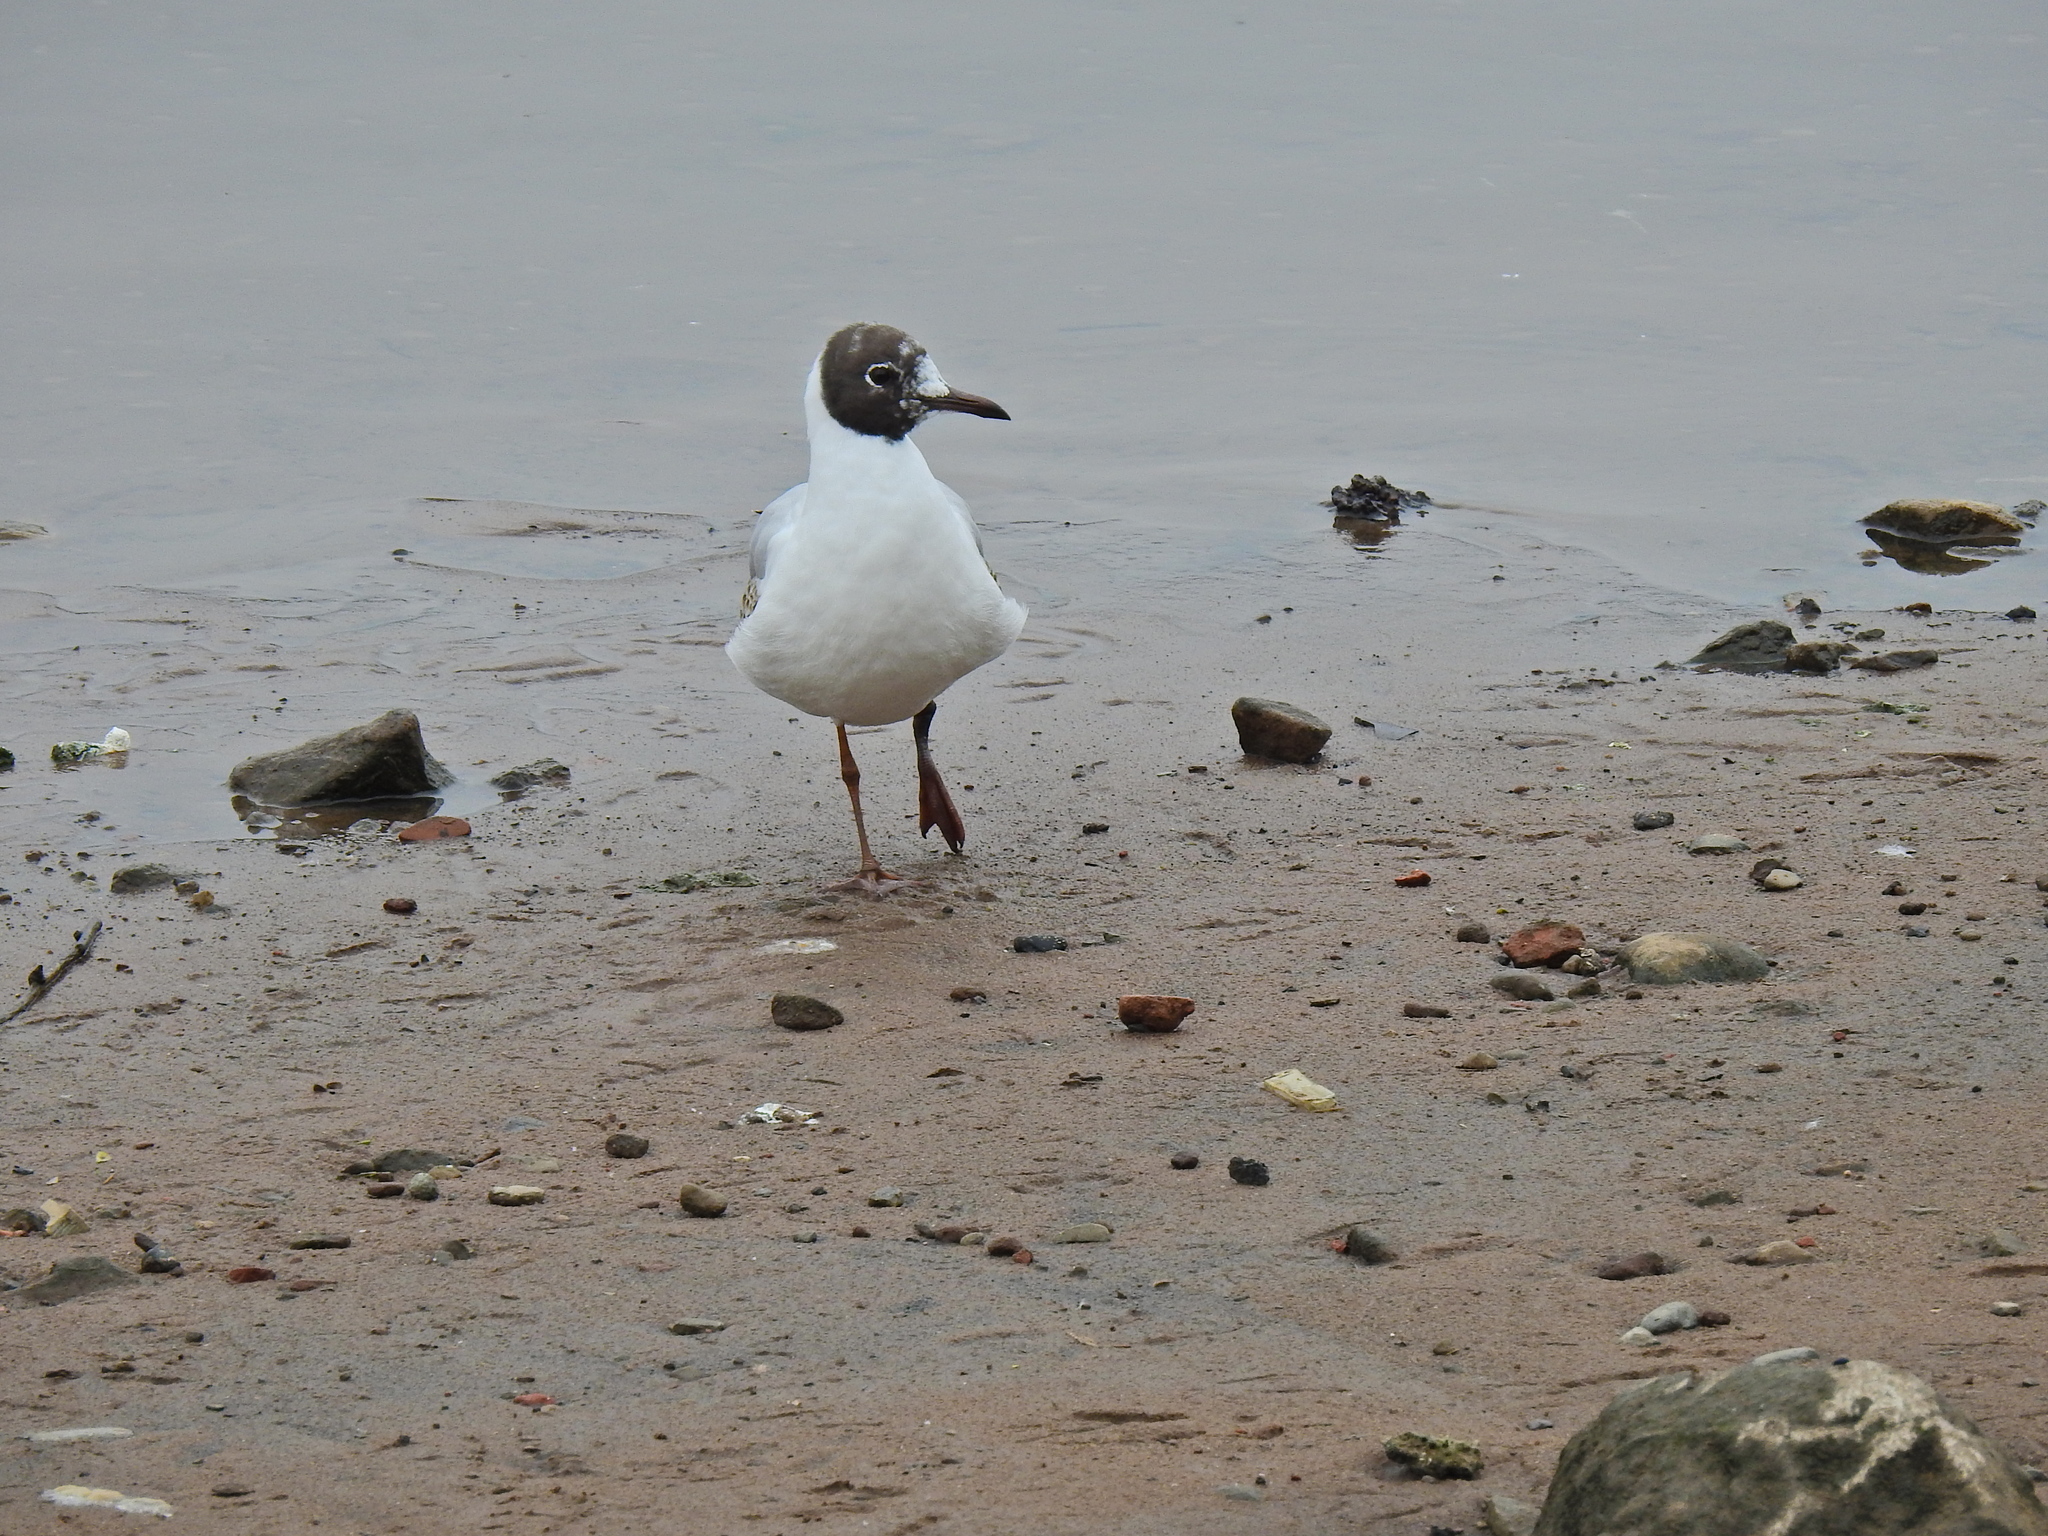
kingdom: Animalia
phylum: Chordata
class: Aves
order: Charadriiformes
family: Laridae
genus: Chroicocephalus
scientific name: Chroicocephalus ridibundus
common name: Black-headed gull
